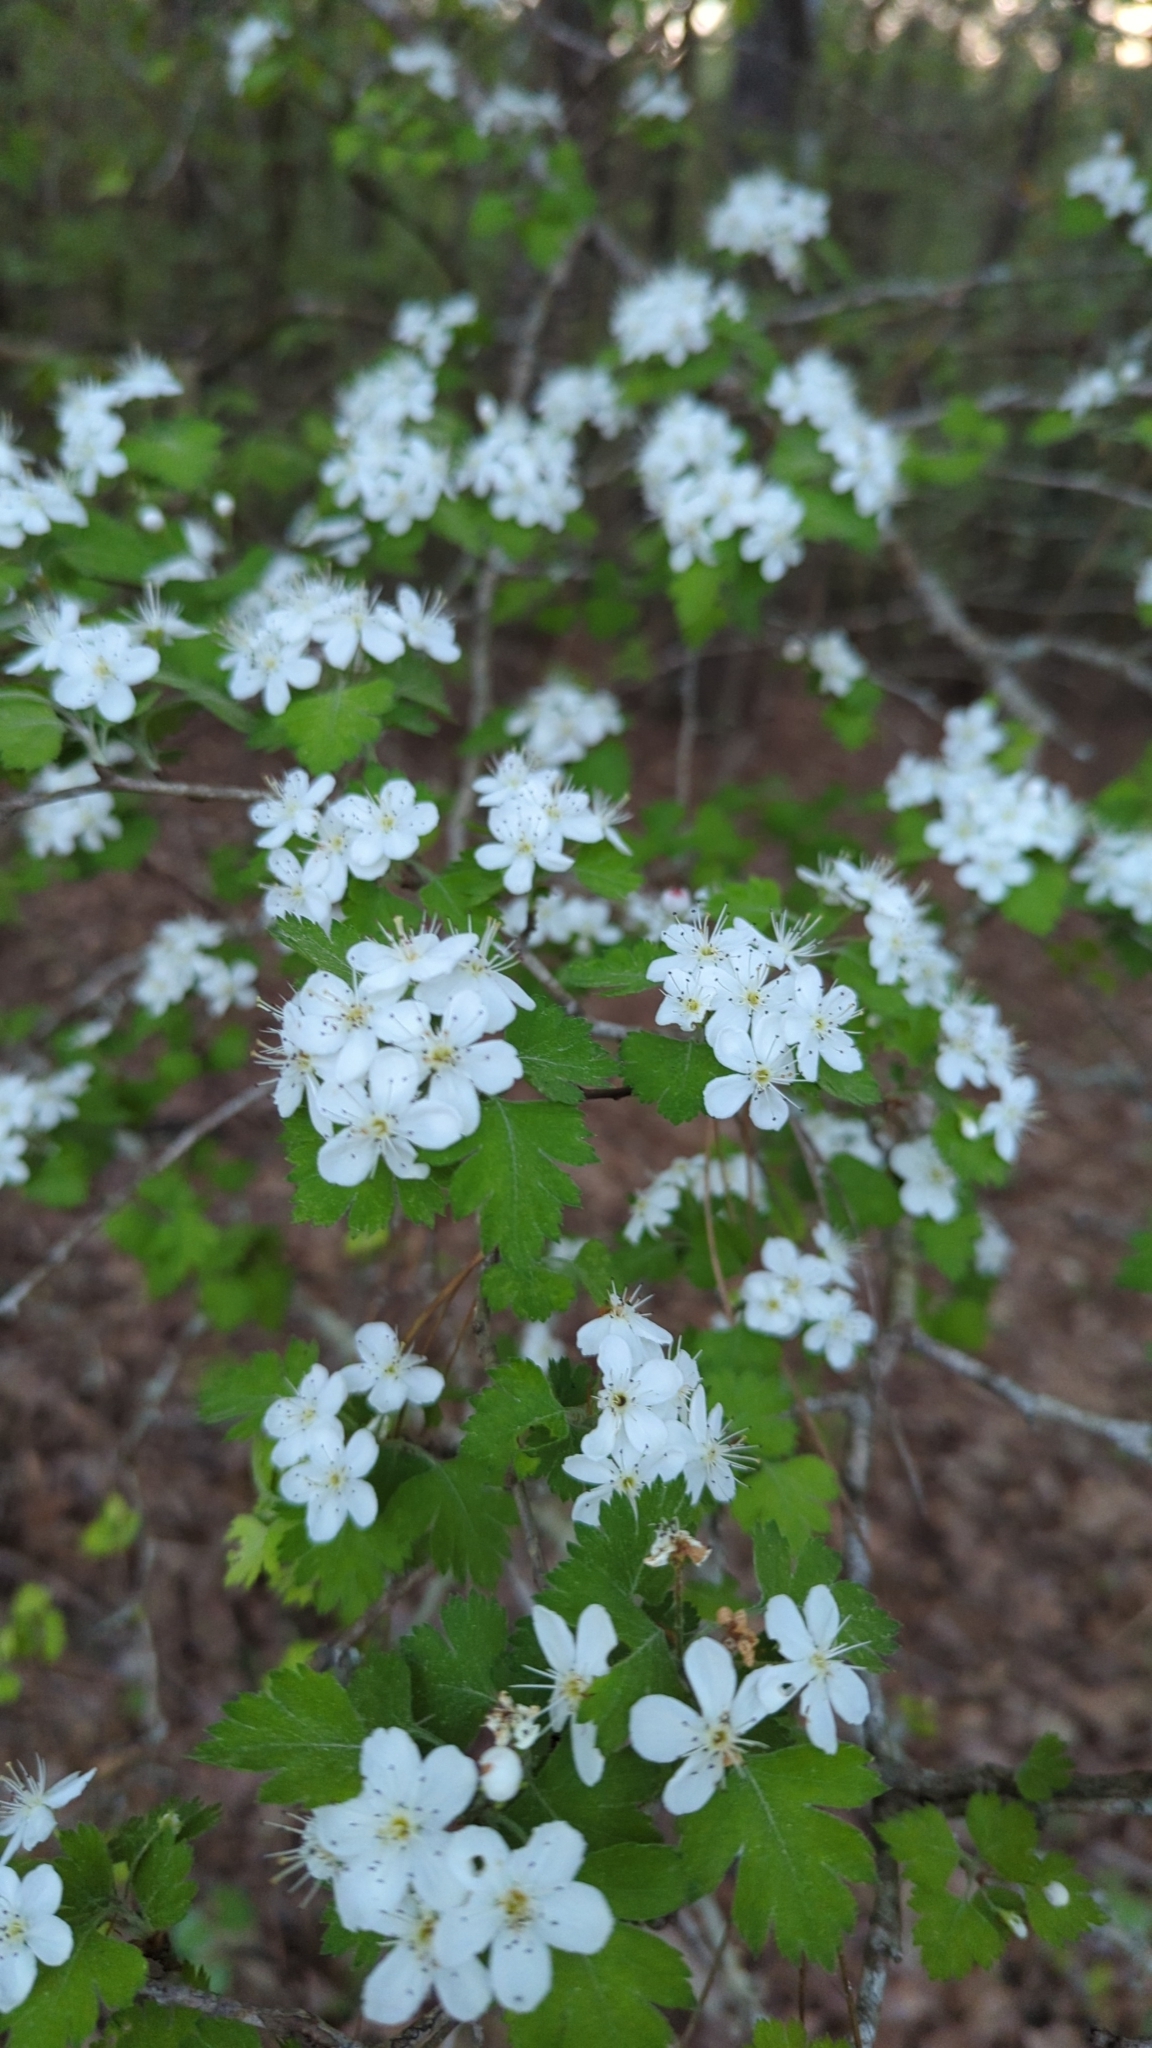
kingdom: Plantae
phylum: Tracheophyta
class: Magnoliopsida
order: Rosales
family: Rosaceae
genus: Crataegus
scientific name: Crataegus marshallii
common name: Parsley-hawthorn
